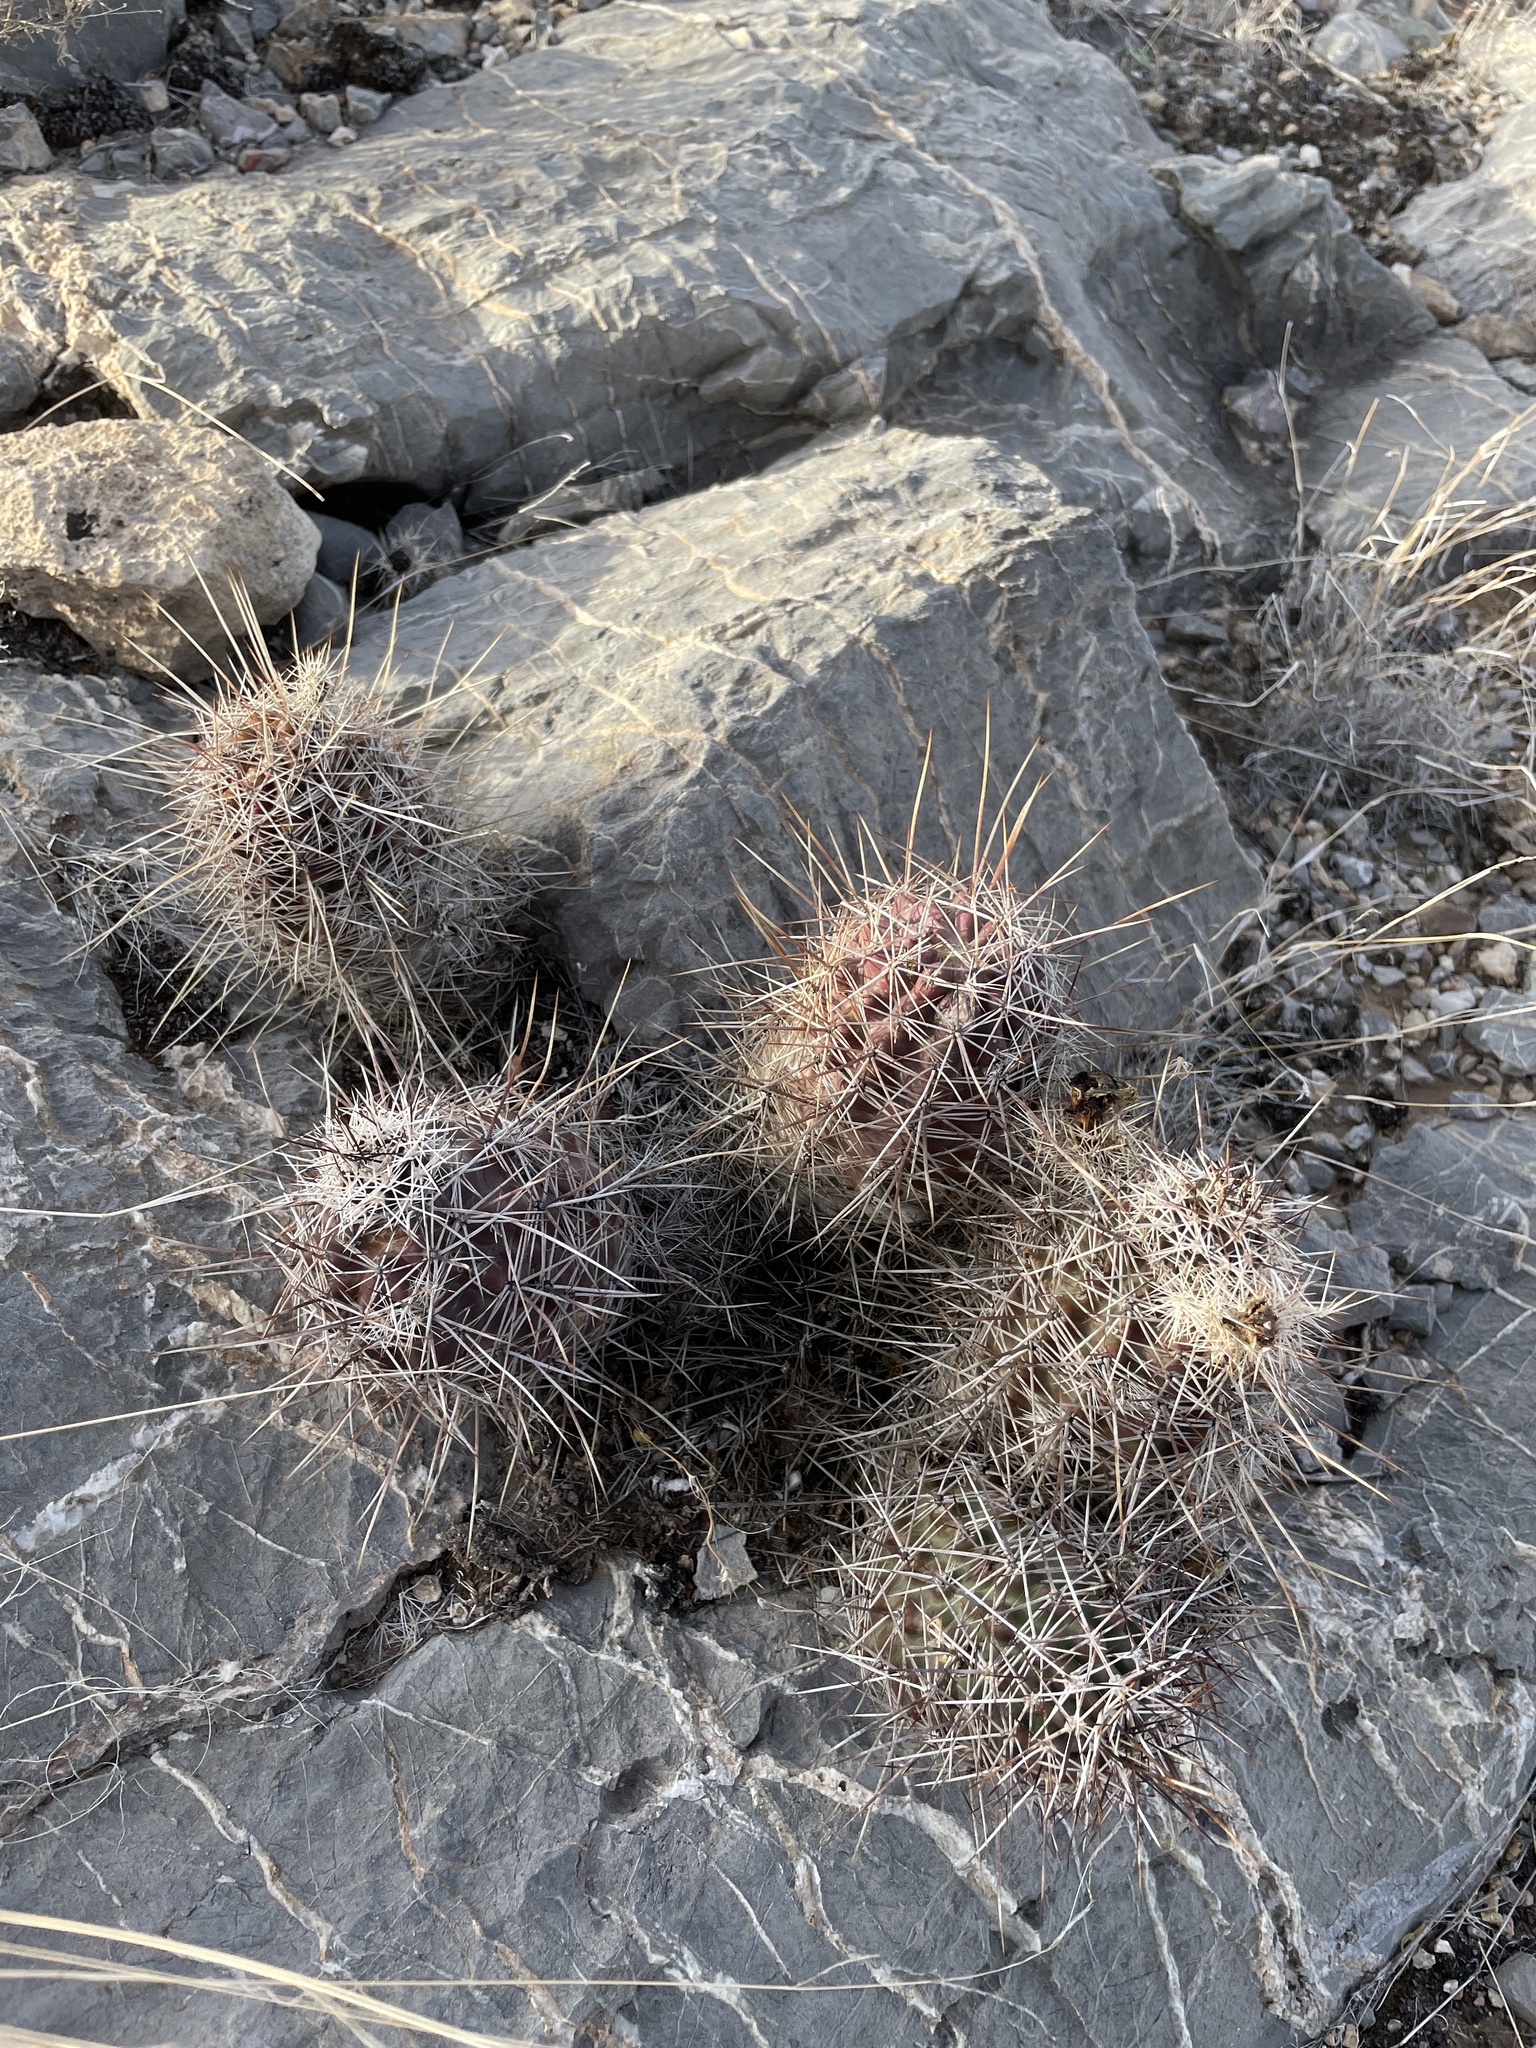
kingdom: Plantae
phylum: Tracheophyta
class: Magnoliopsida
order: Caryophyllales
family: Cactaceae
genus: Echinocereus
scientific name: Echinocereus fendleri
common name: Fendler's hedgehog cactus
